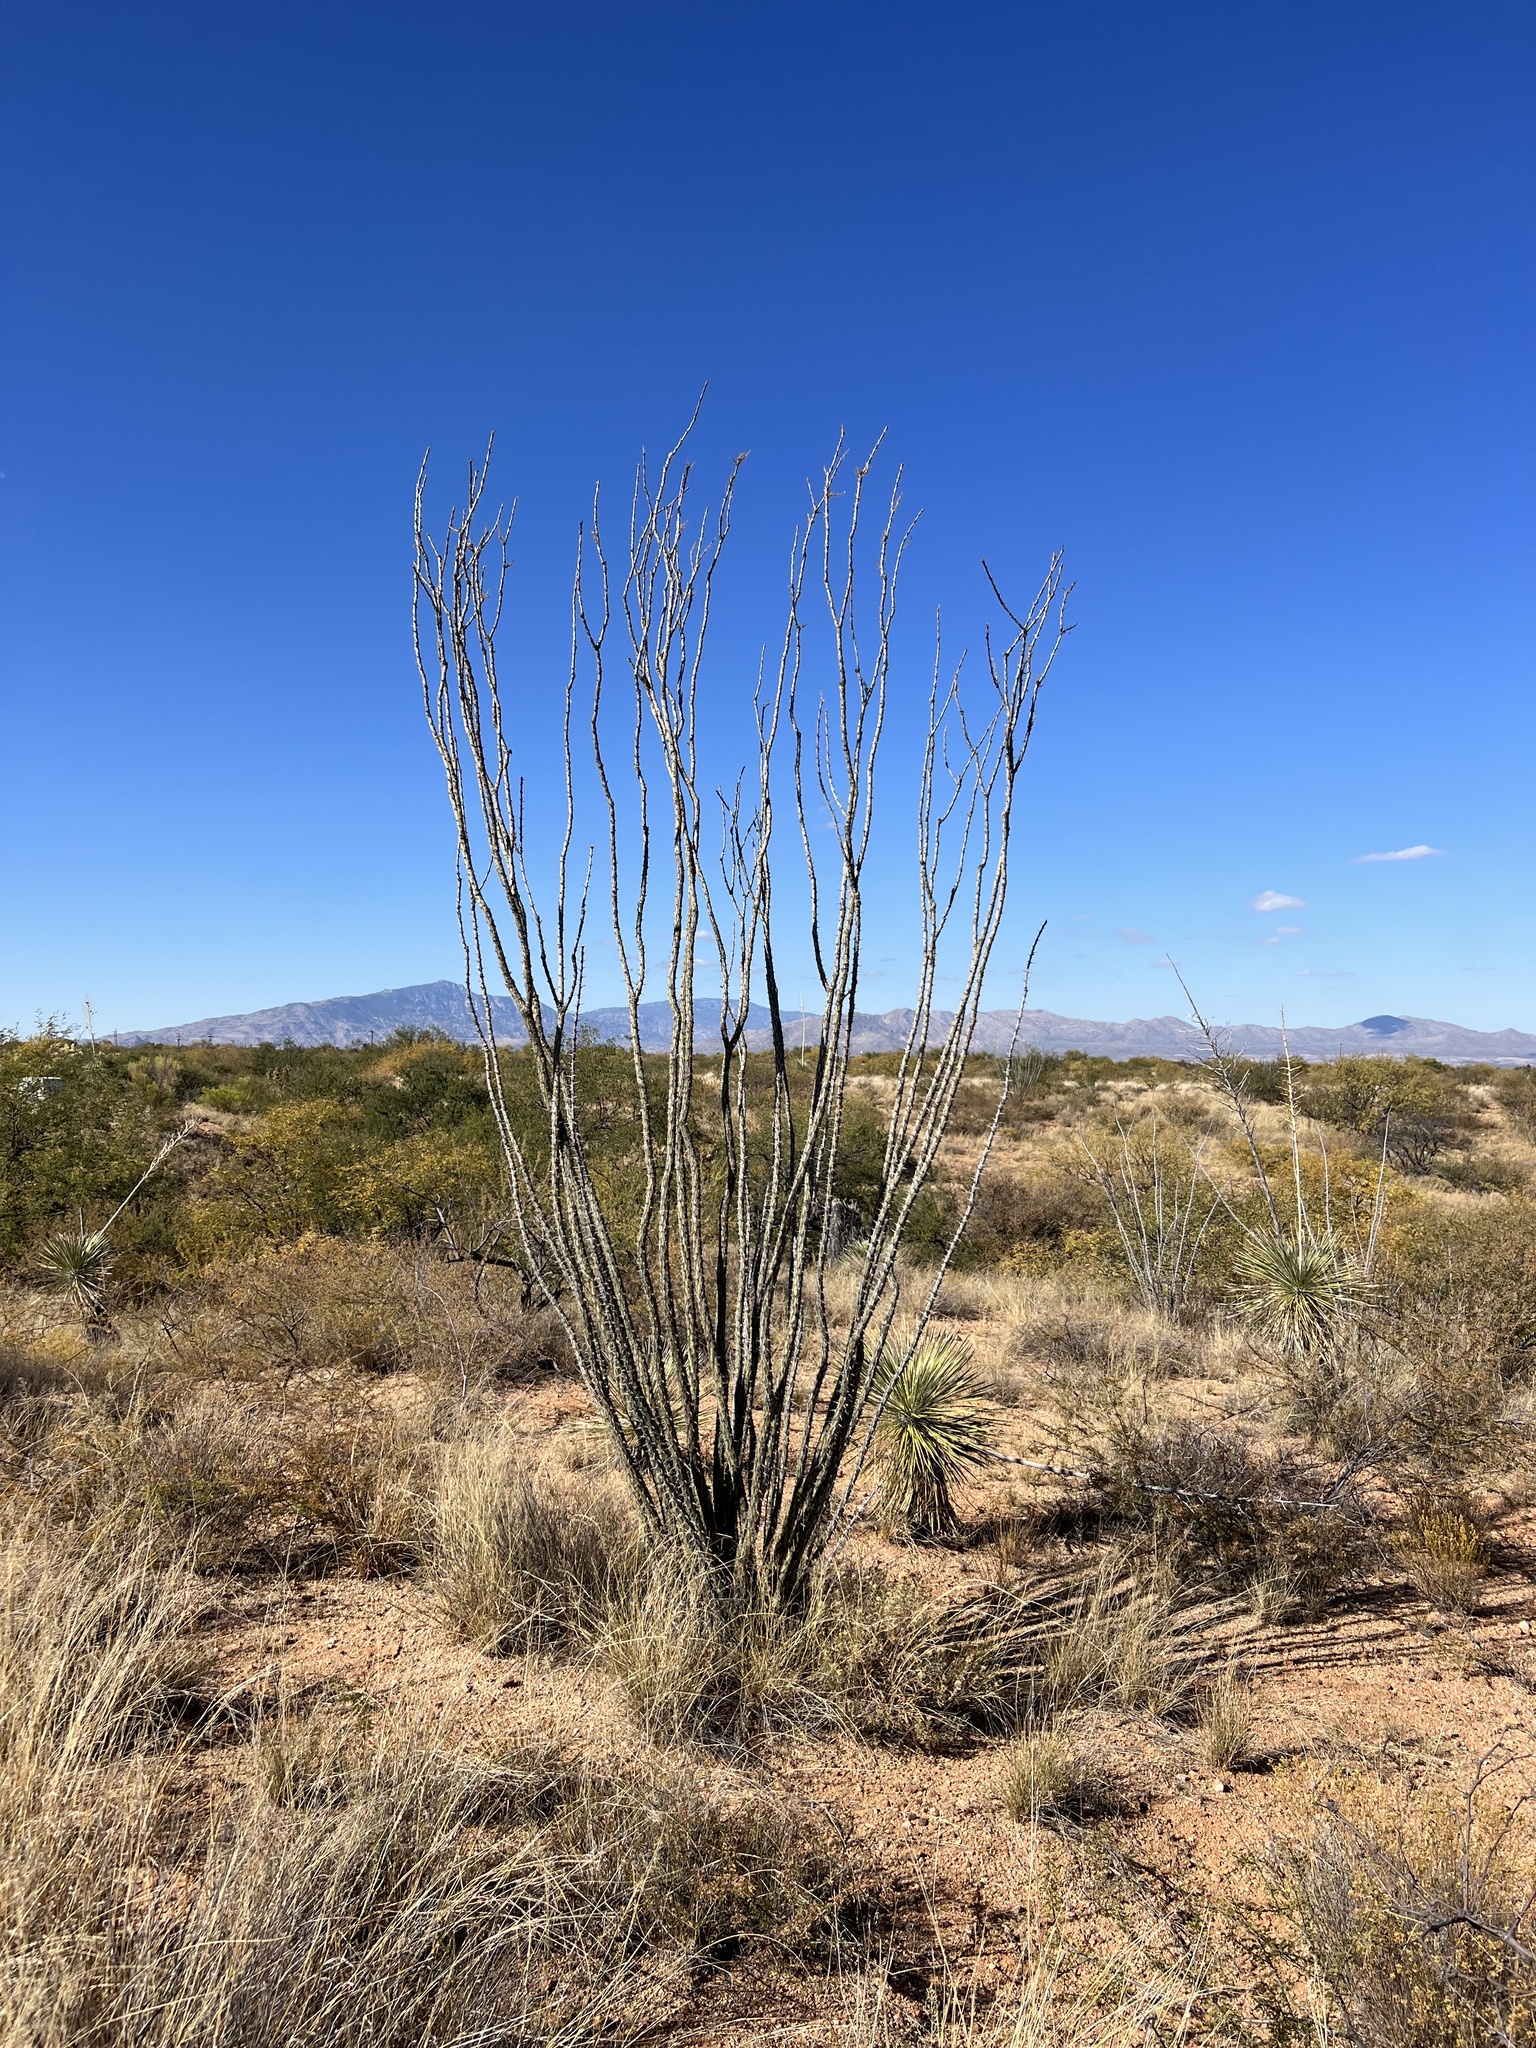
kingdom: Plantae
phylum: Tracheophyta
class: Magnoliopsida
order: Ericales
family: Fouquieriaceae
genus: Fouquieria
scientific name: Fouquieria splendens
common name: Vine-cactus
